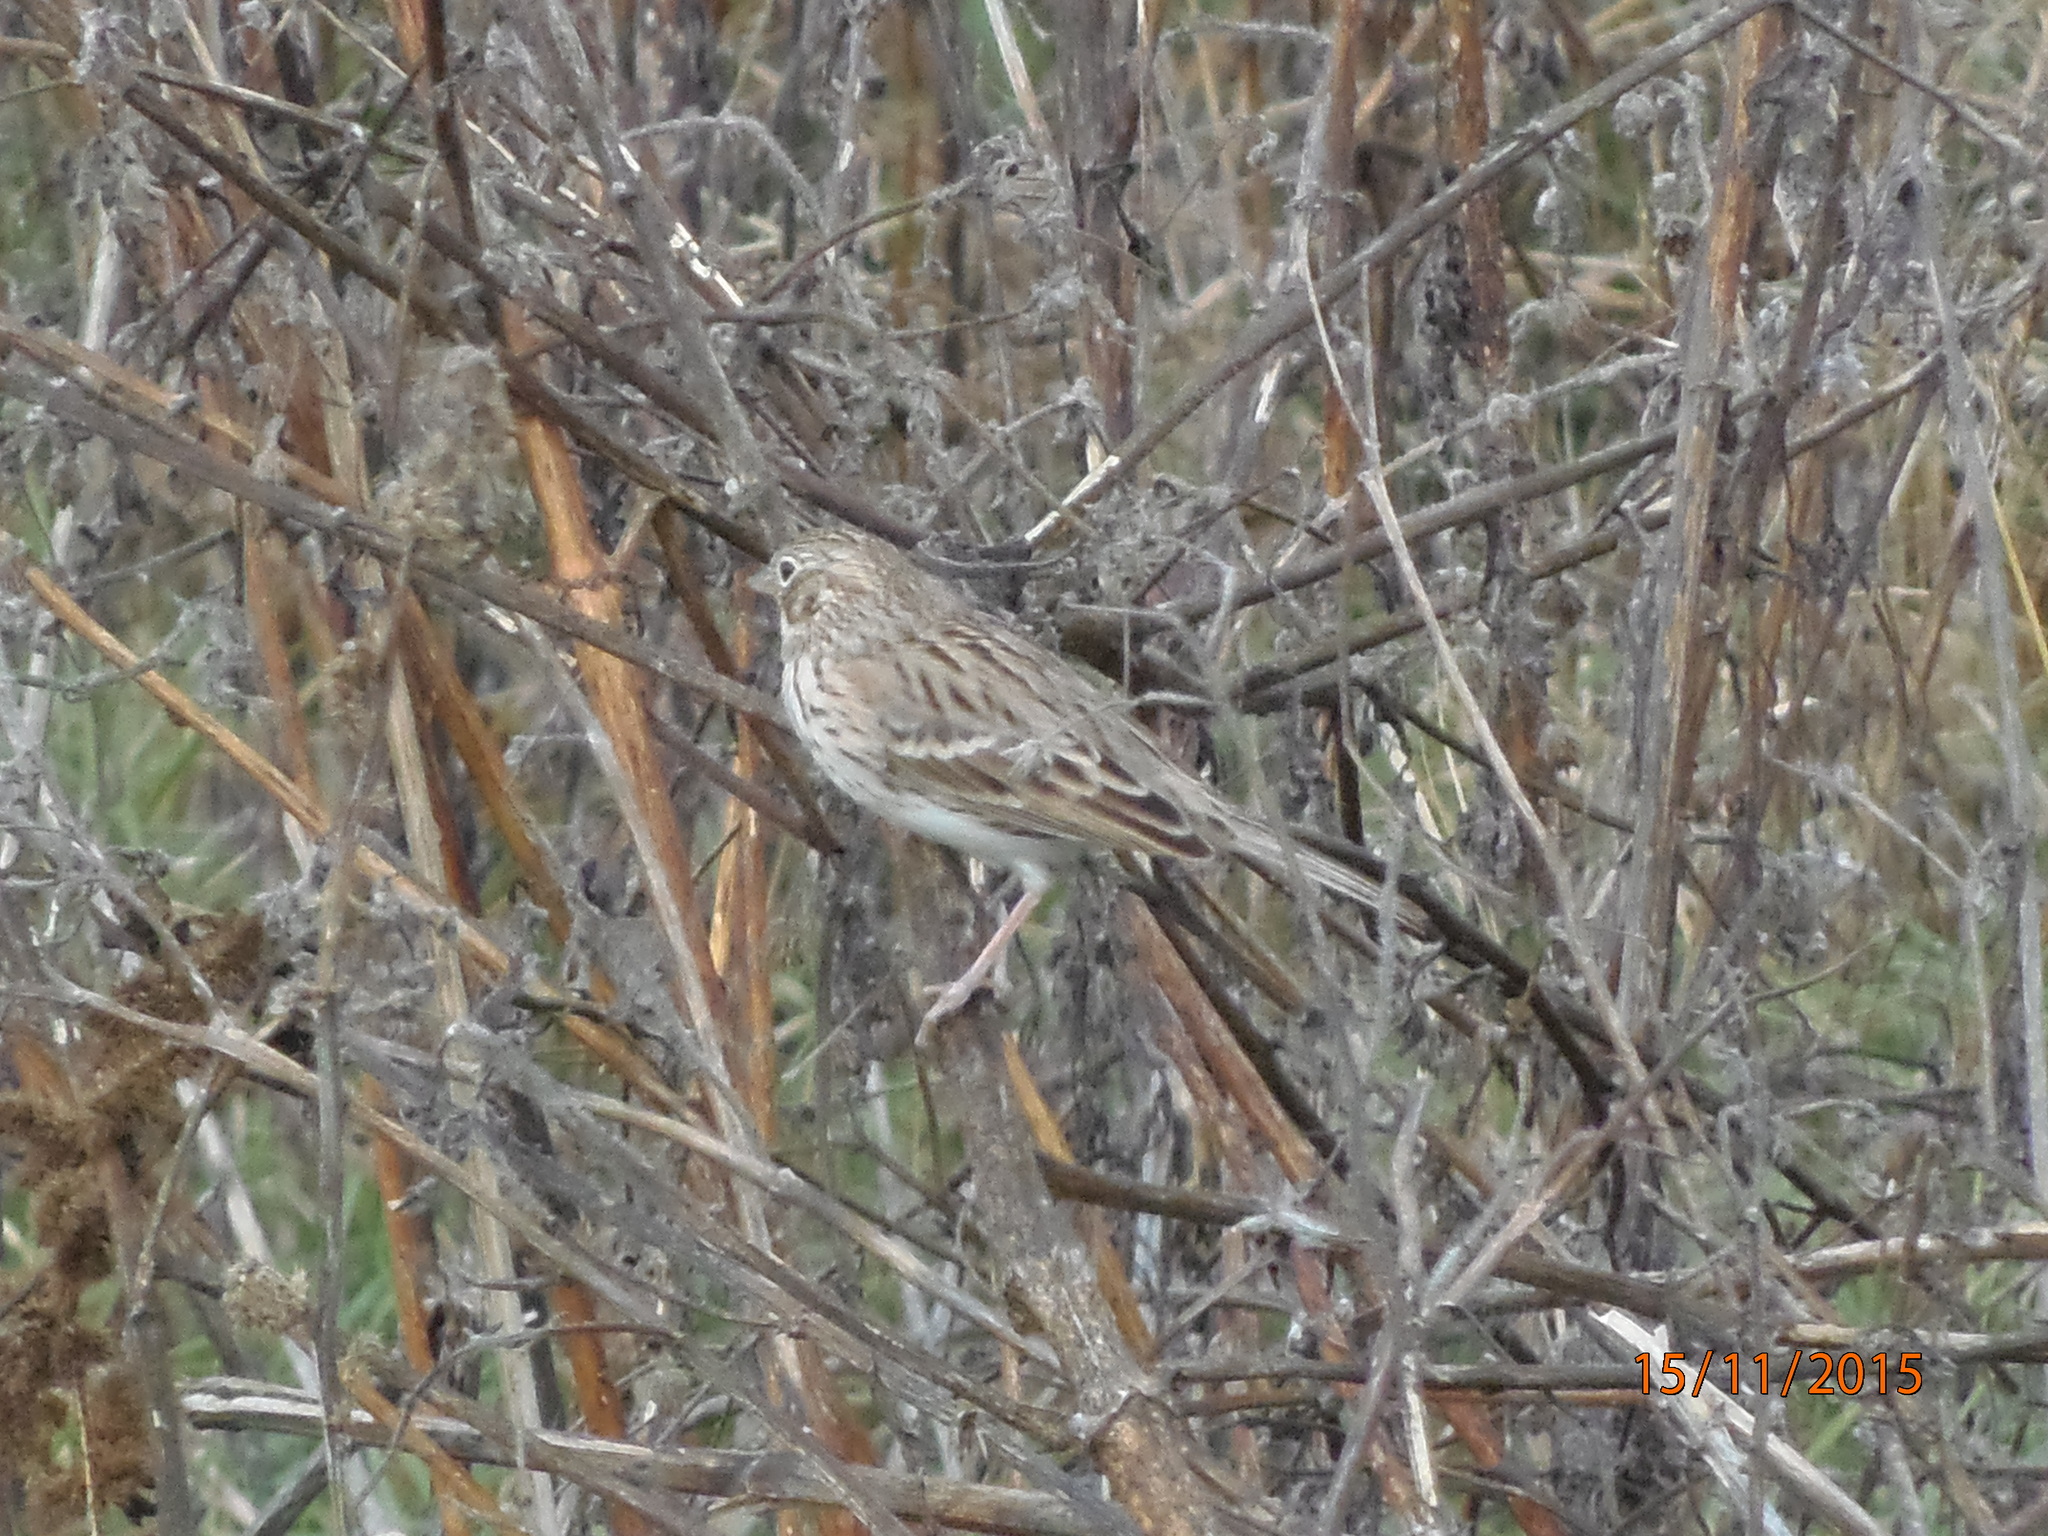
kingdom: Animalia
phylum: Chordata
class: Aves
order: Passeriformes
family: Passerellidae
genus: Pooecetes
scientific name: Pooecetes gramineus
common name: Vesper sparrow
